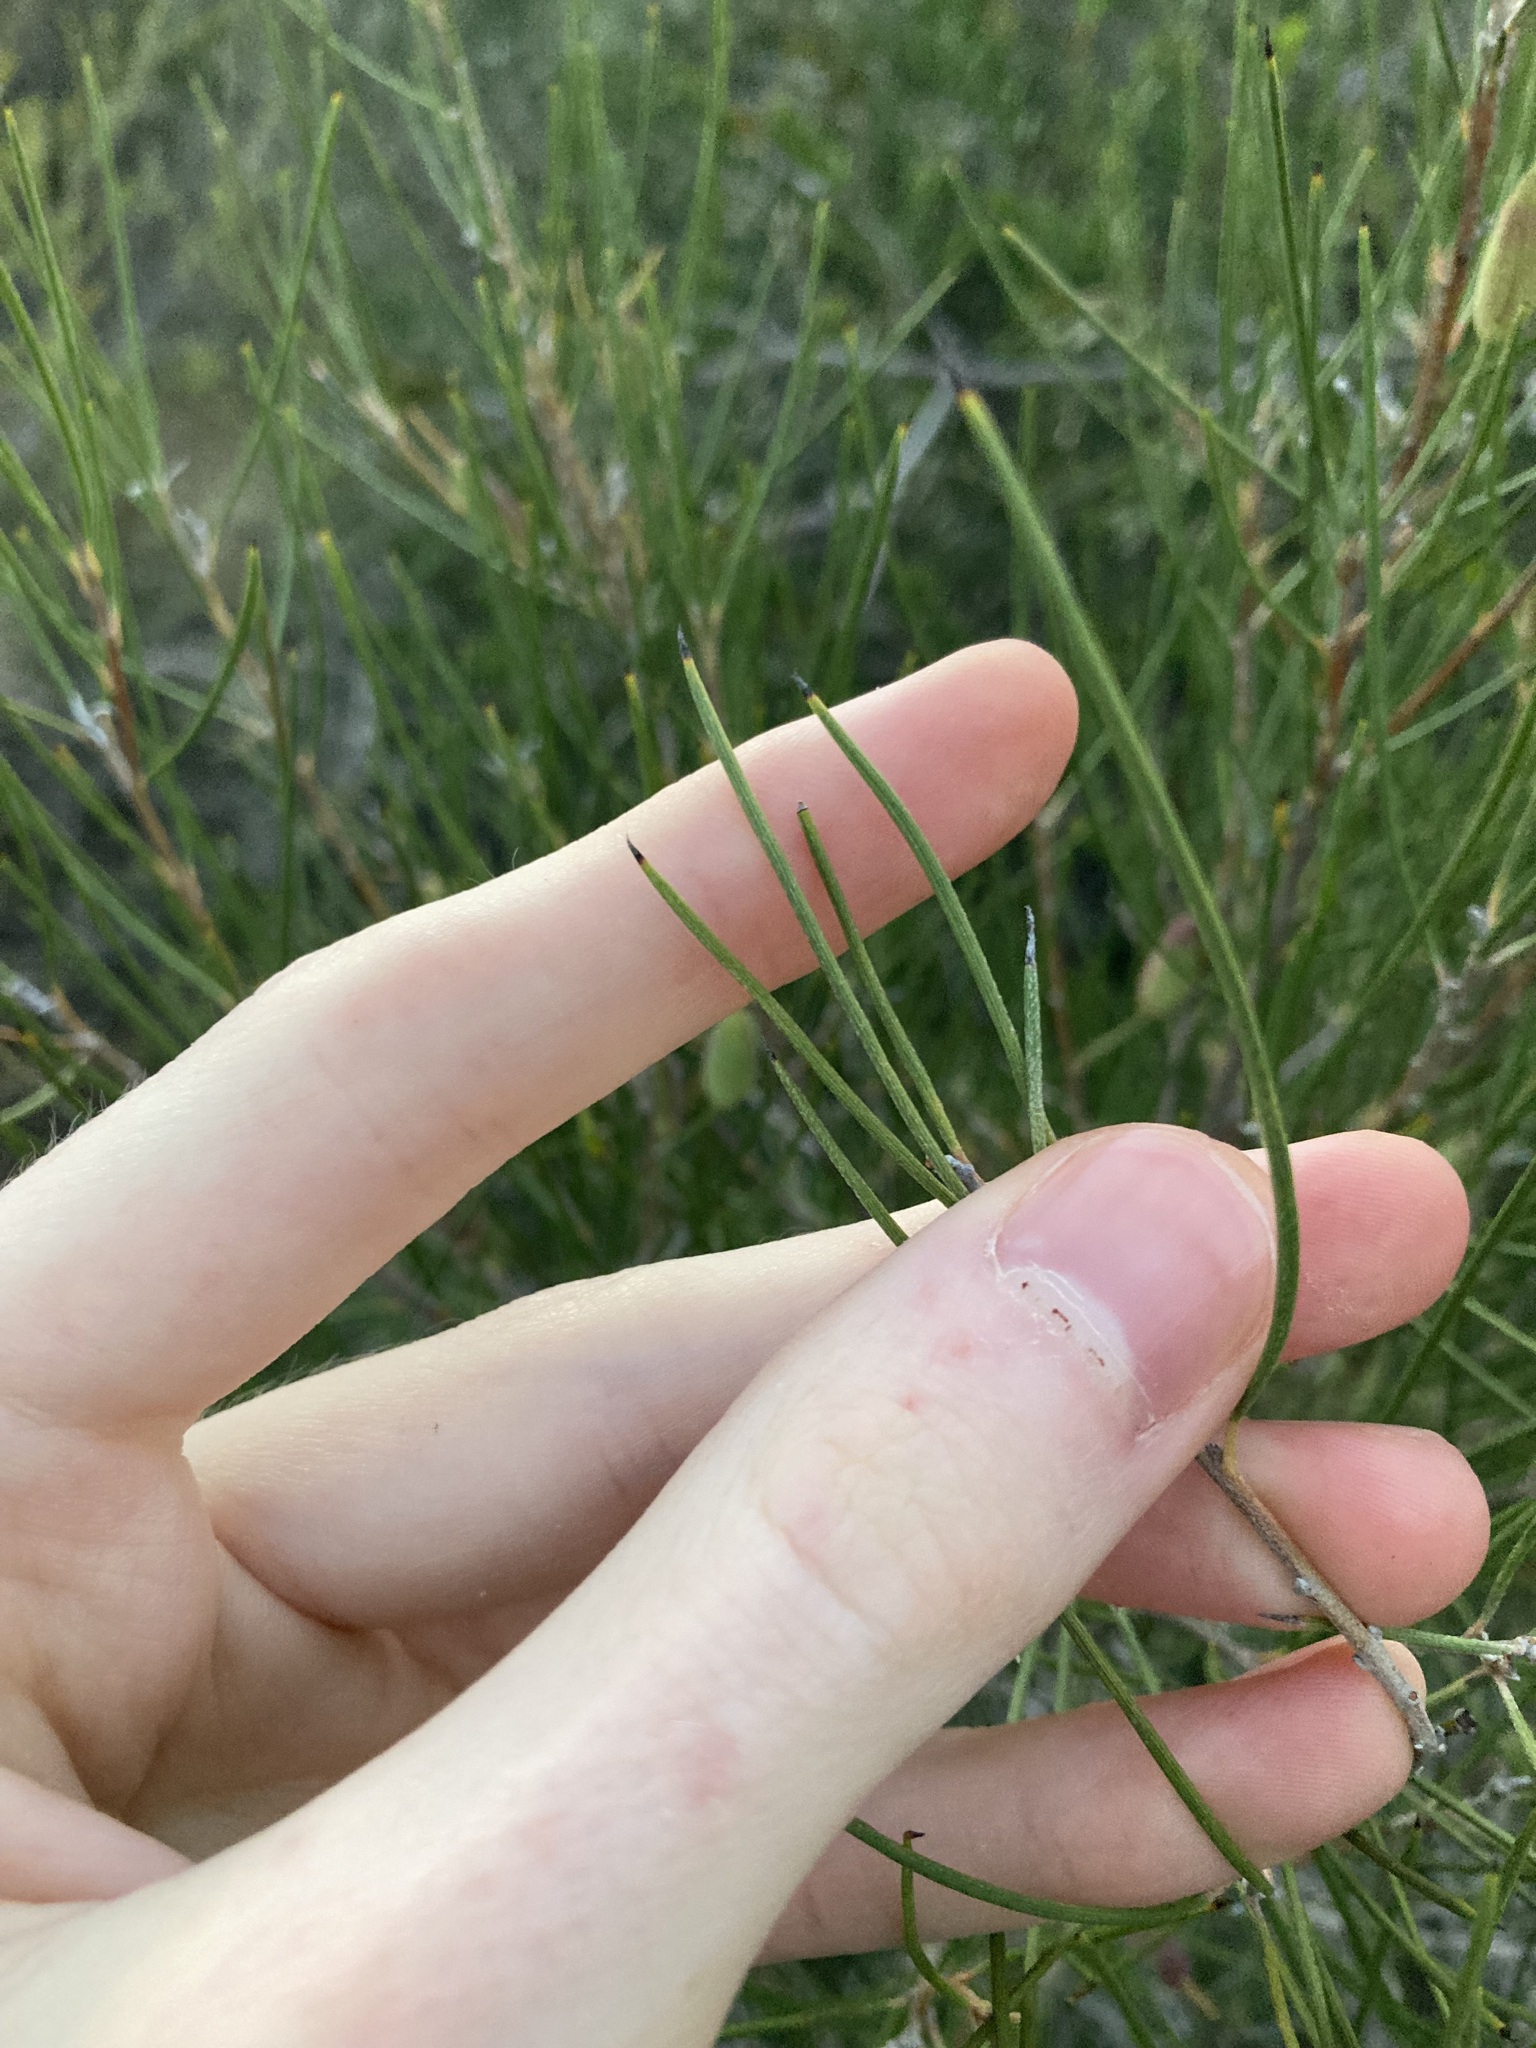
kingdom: Plantae
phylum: Tracheophyta
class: Magnoliopsida
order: Proteales
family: Proteaceae
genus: Persoonia
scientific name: Persoonia hexagona
